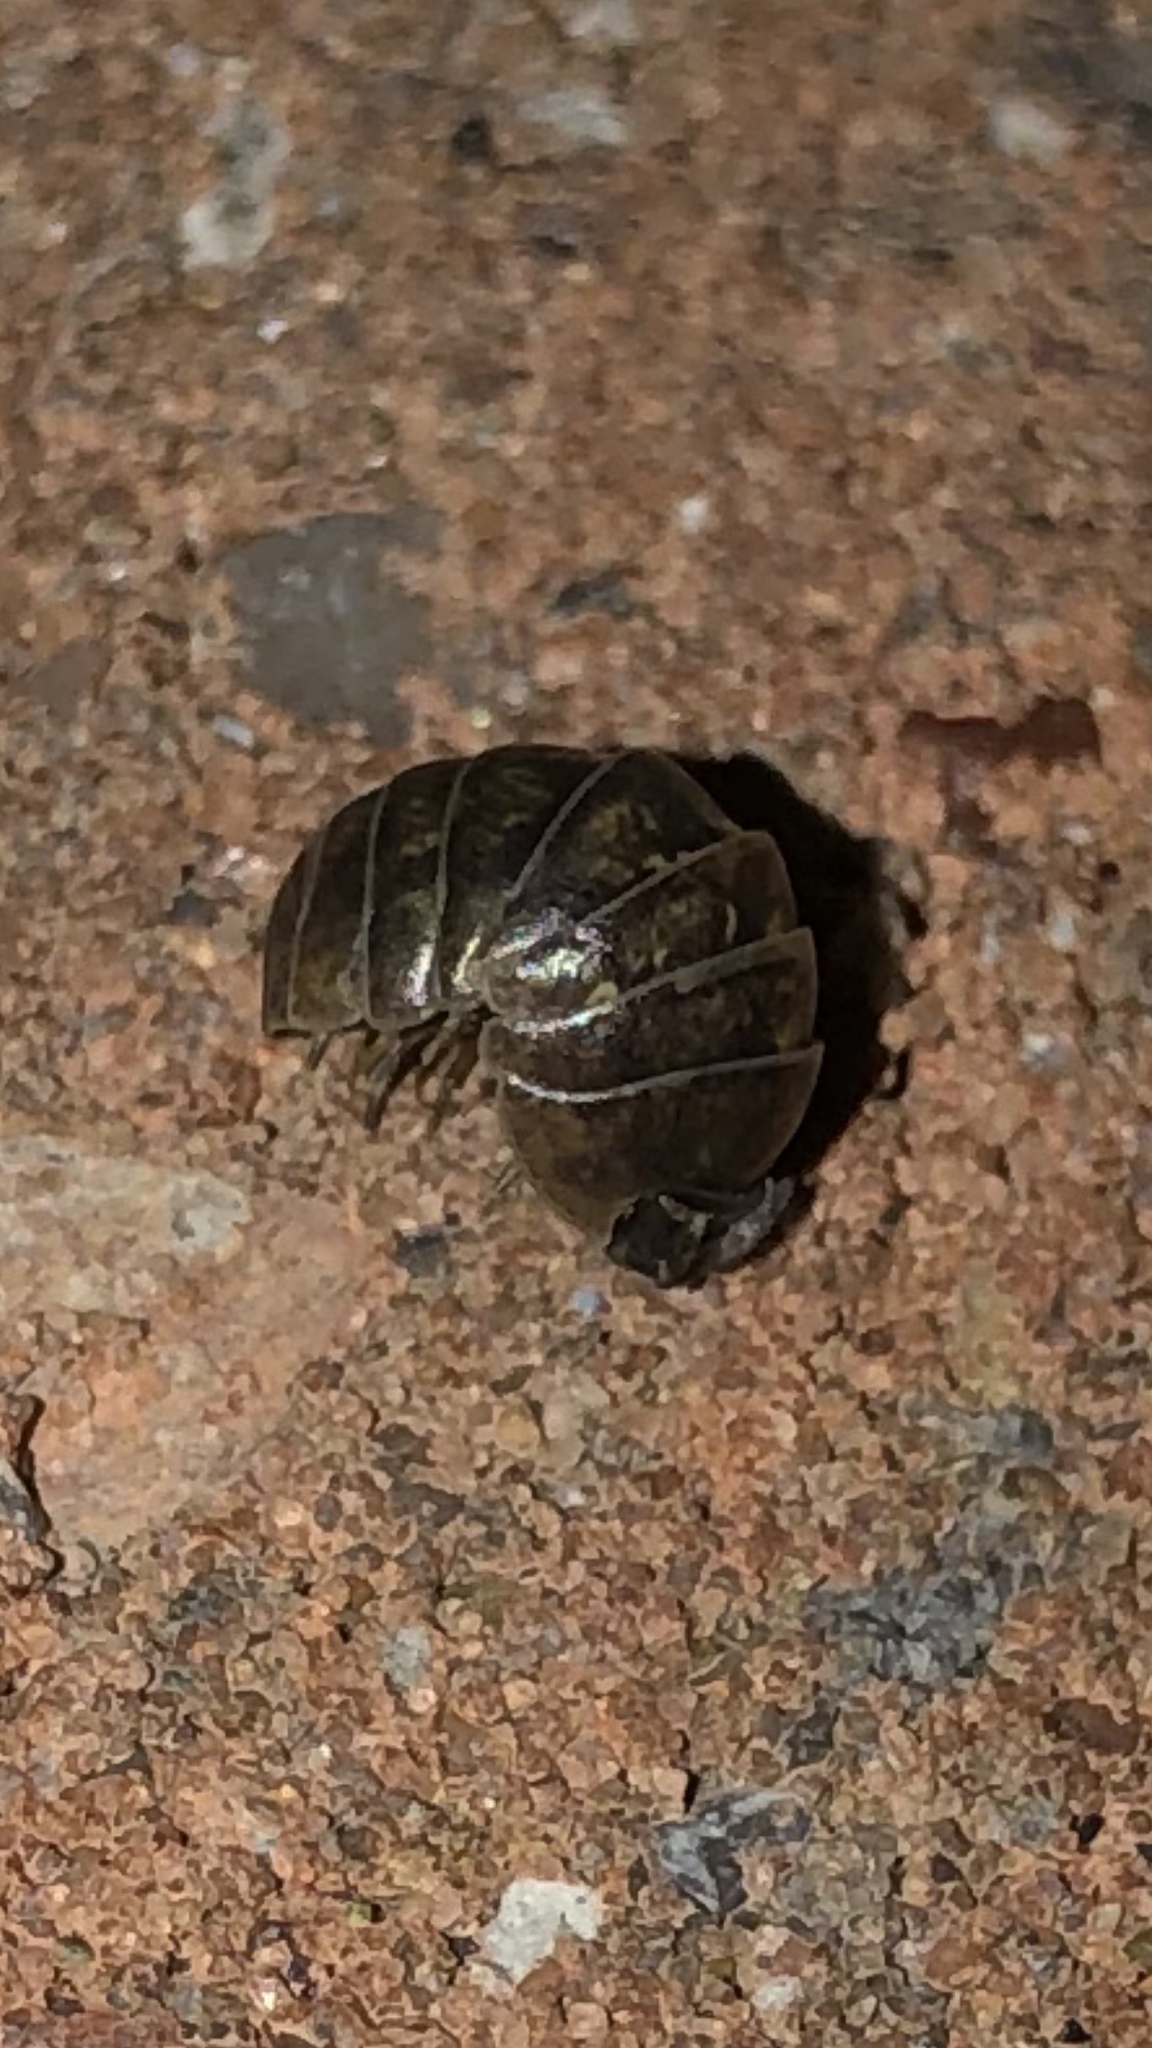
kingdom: Animalia
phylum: Arthropoda
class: Malacostraca
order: Isopoda
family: Armadillidiidae
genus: Armadillidium
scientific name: Armadillidium vulgare
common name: Common pill woodlouse
